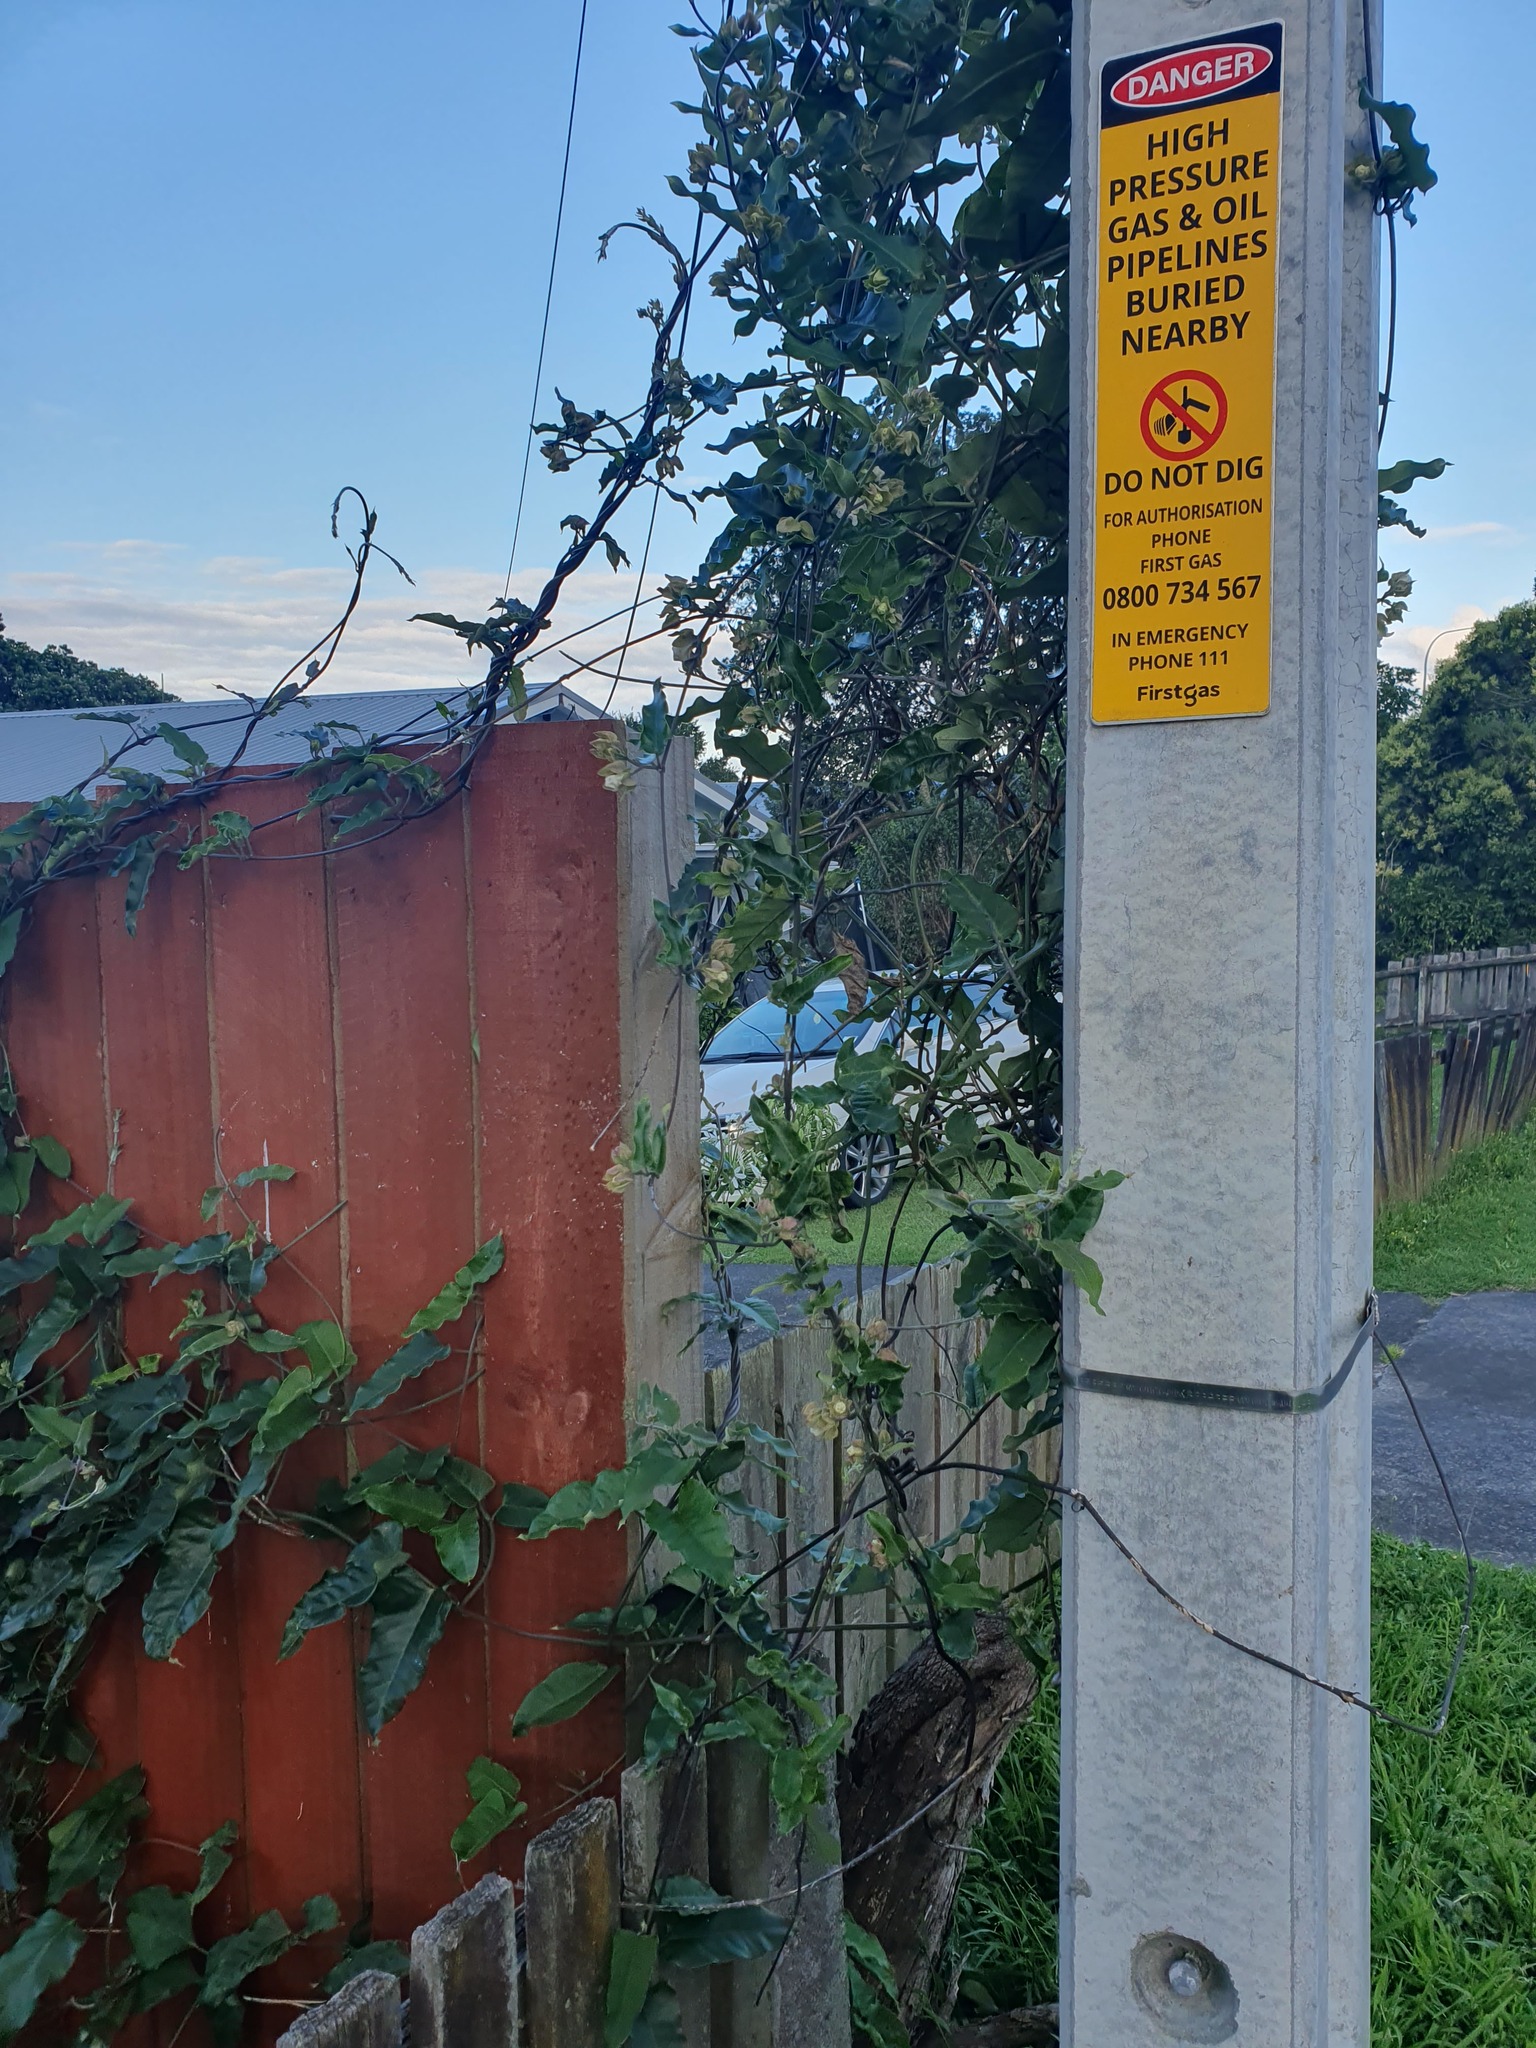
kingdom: Plantae
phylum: Tracheophyta
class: Magnoliopsida
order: Gentianales
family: Apocynaceae
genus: Araujia
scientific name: Araujia sericifera
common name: White bladderflower
